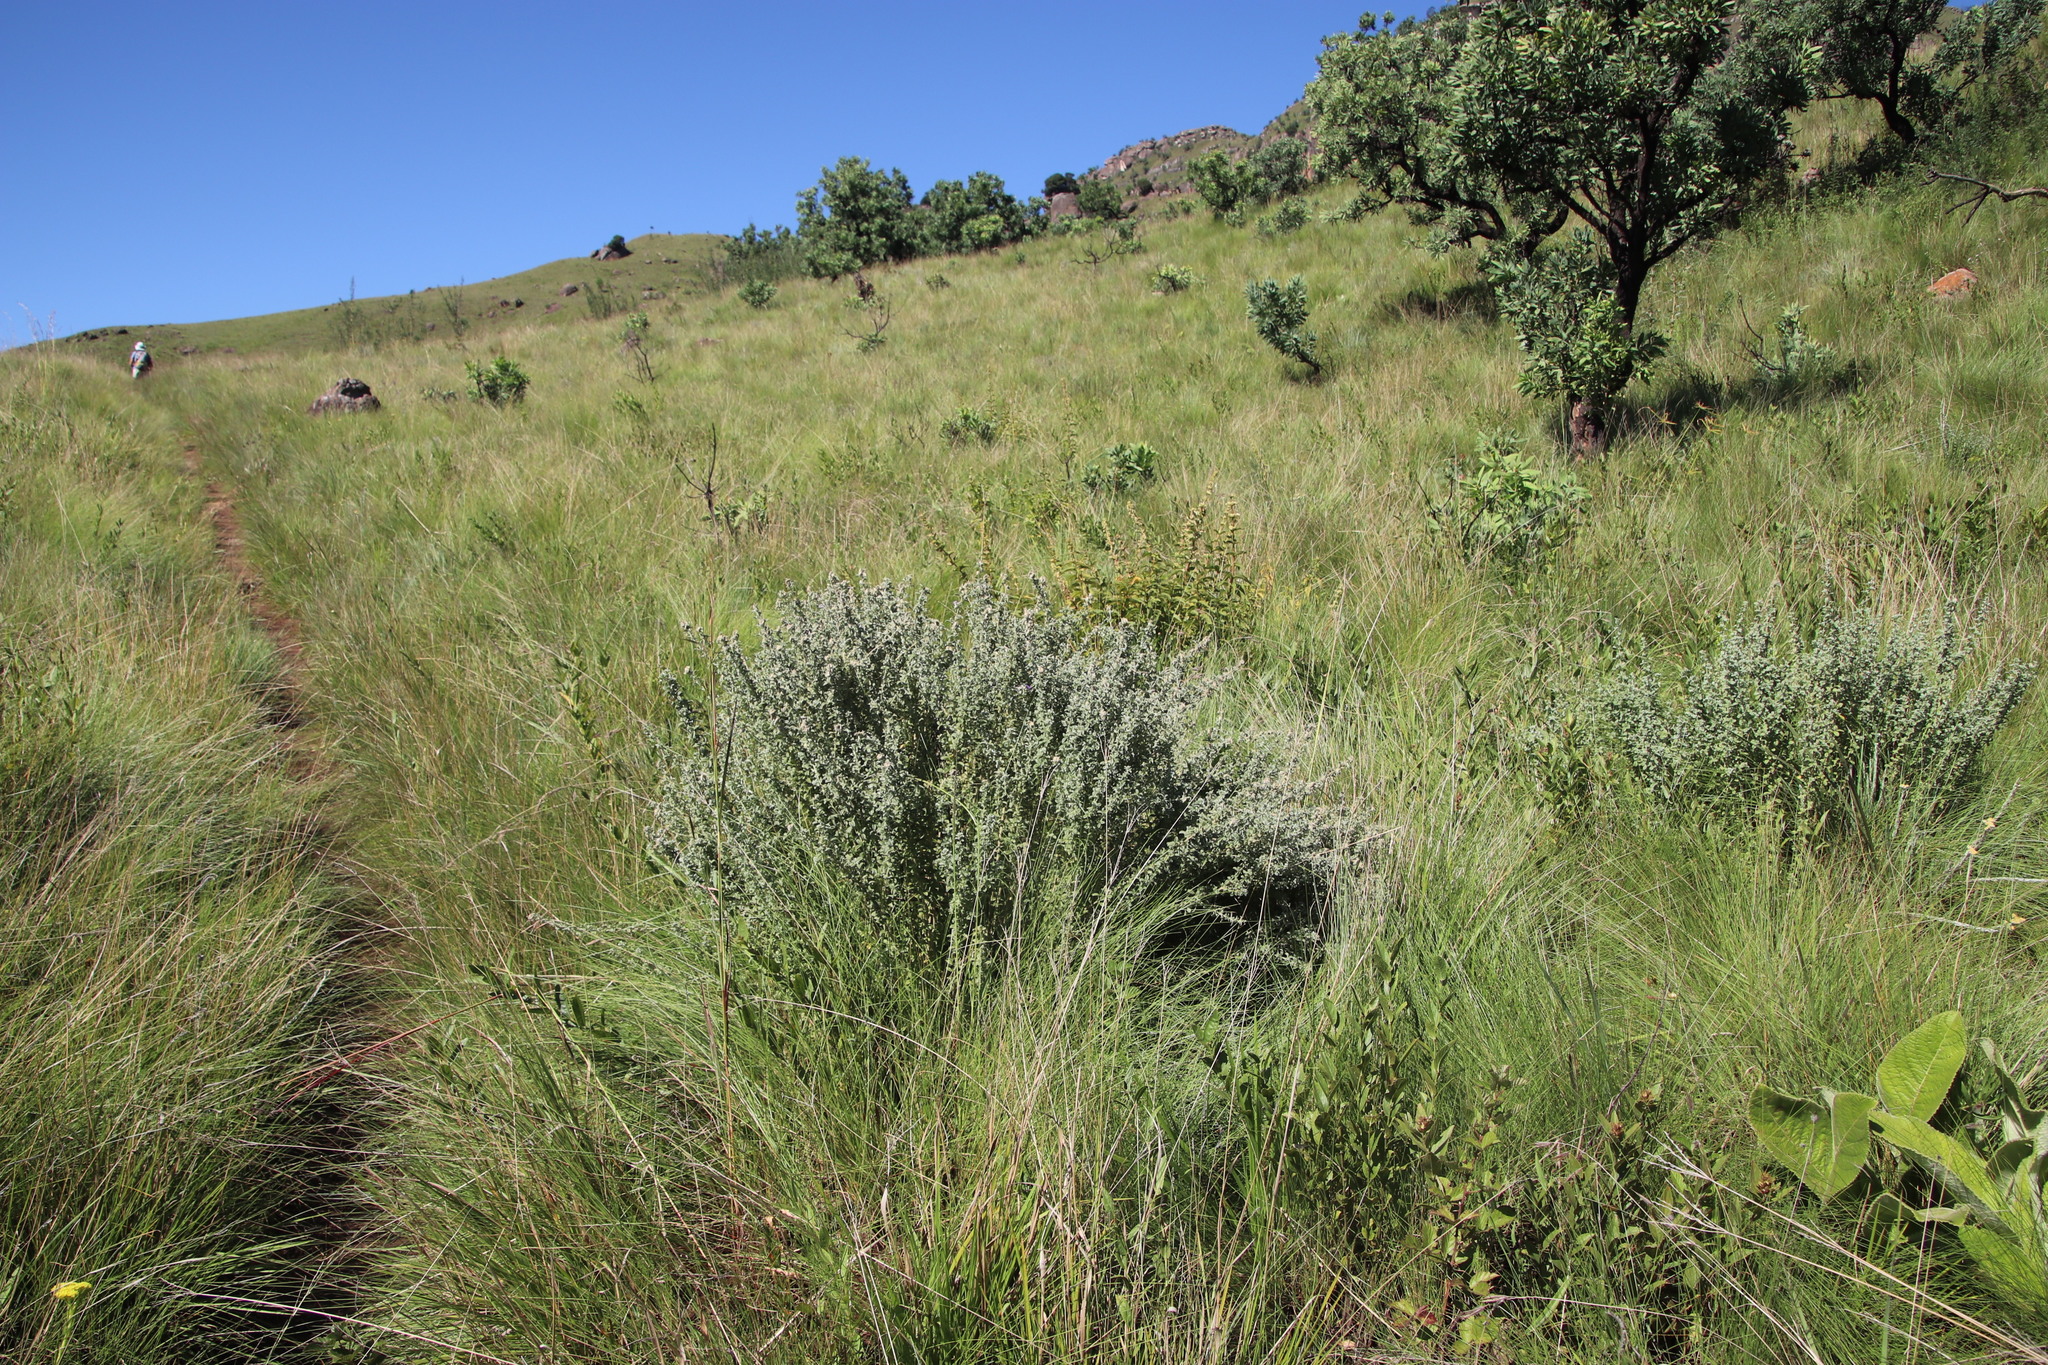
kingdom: Plantae
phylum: Tracheophyta
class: Magnoliopsida
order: Fabales
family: Fabaceae
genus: Lotononis
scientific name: Lotononis lotononoides
